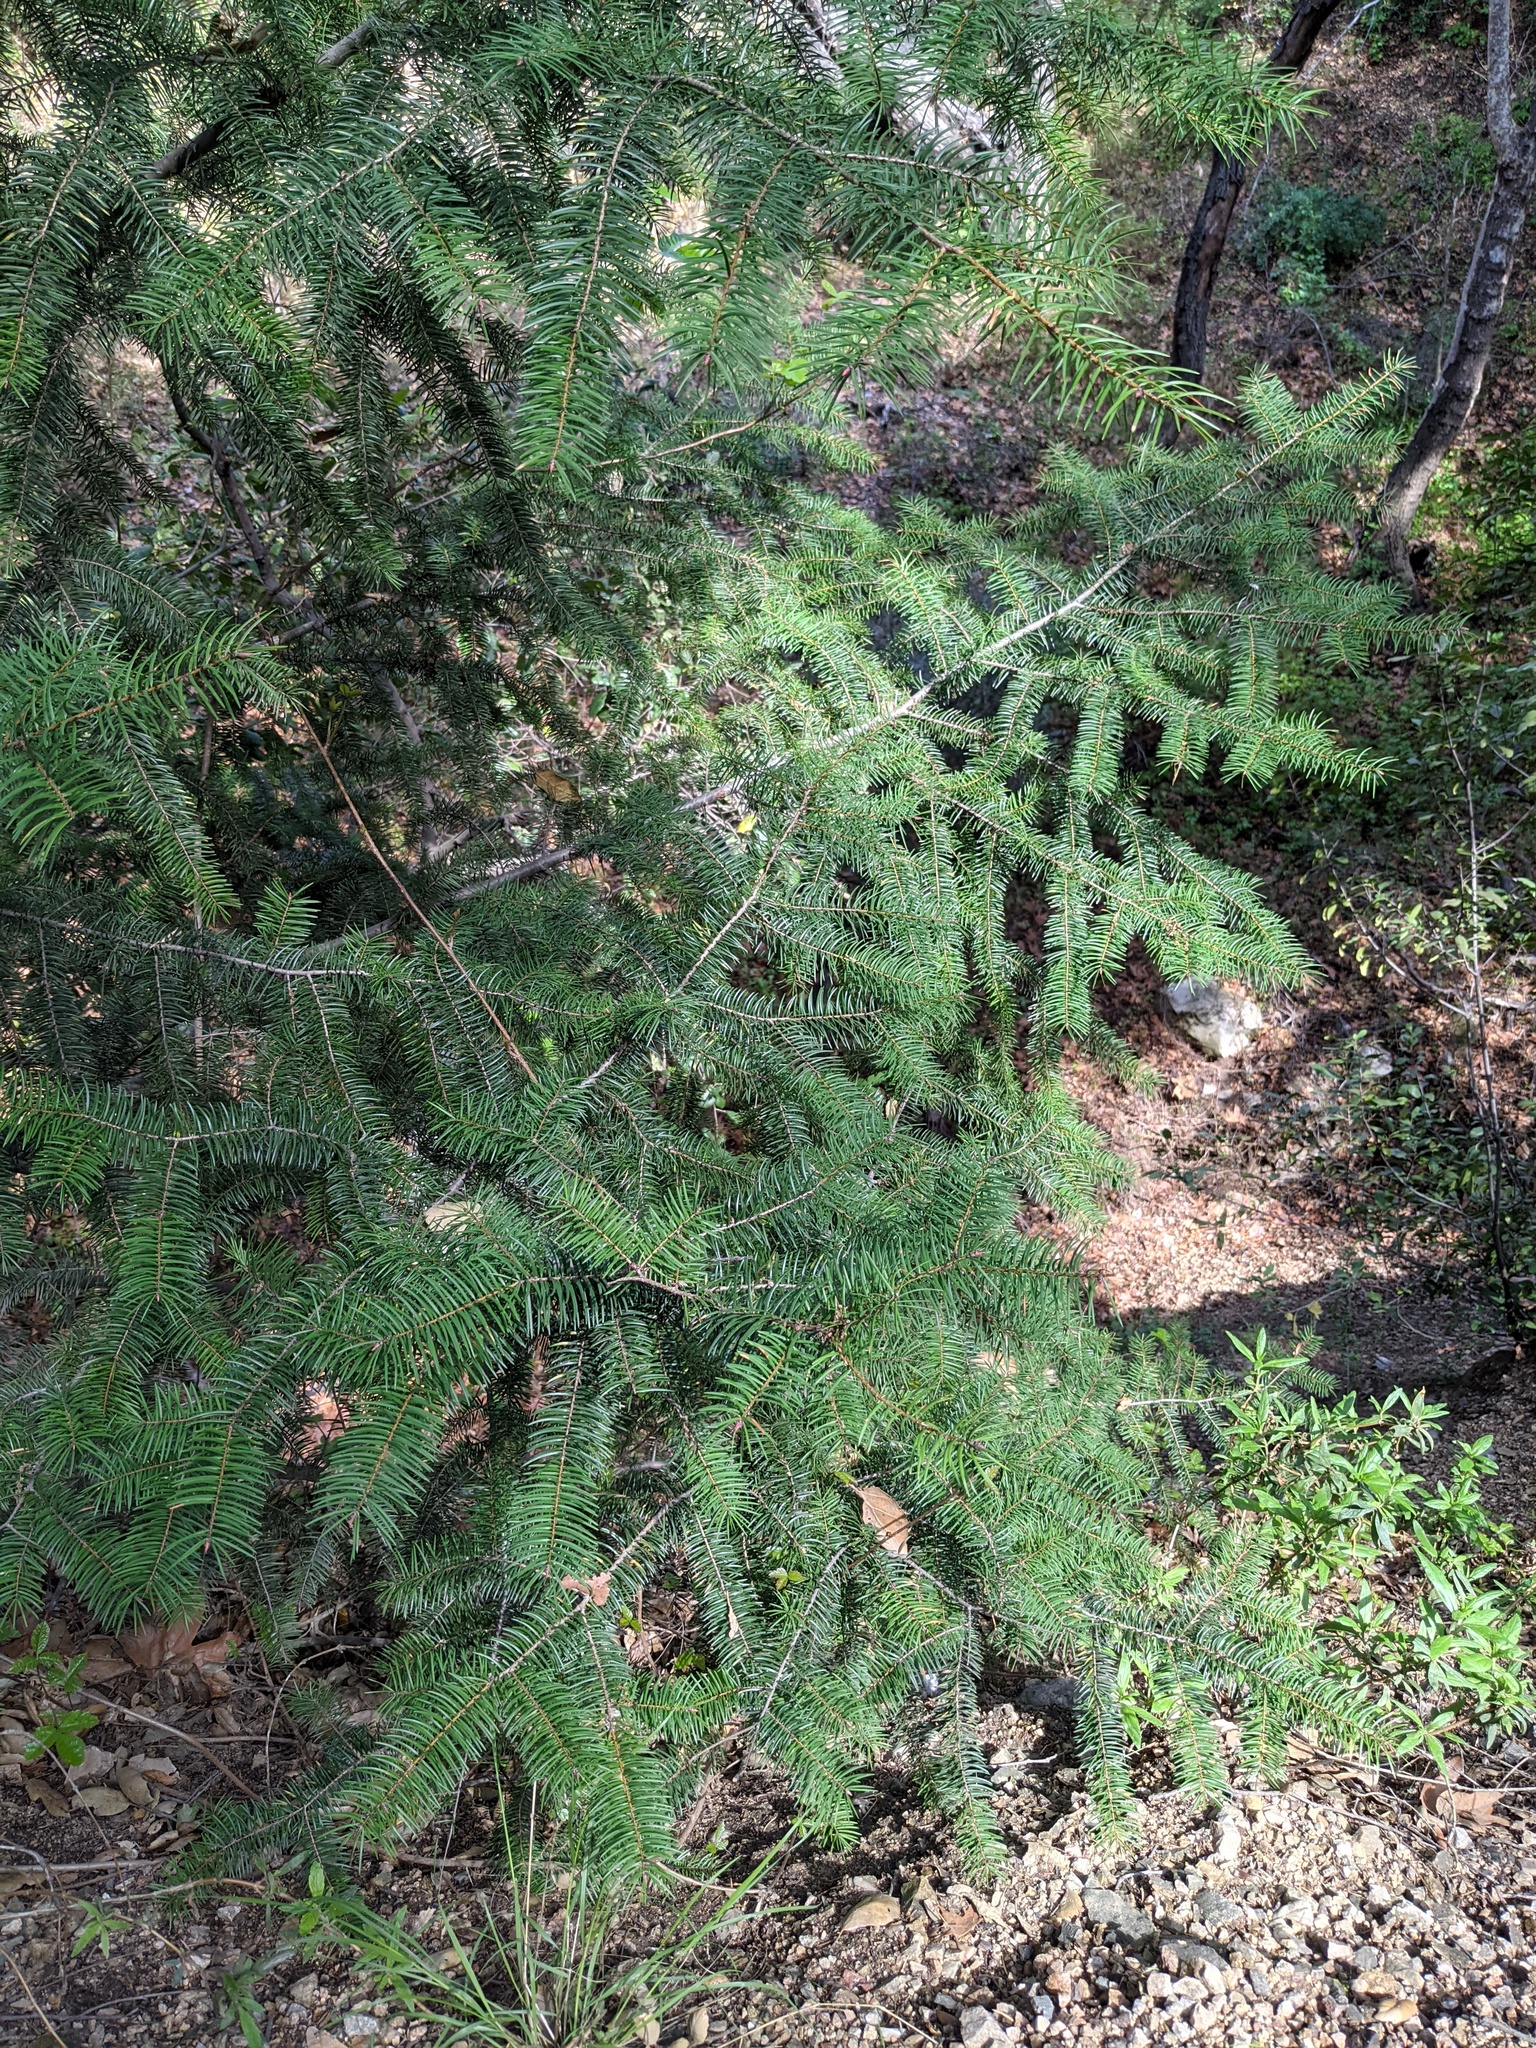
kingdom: Plantae
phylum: Tracheophyta
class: Pinopsida
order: Pinales
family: Pinaceae
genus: Pseudotsuga
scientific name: Pseudotsuga macrocarpa
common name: Big-cone douglas-fir
